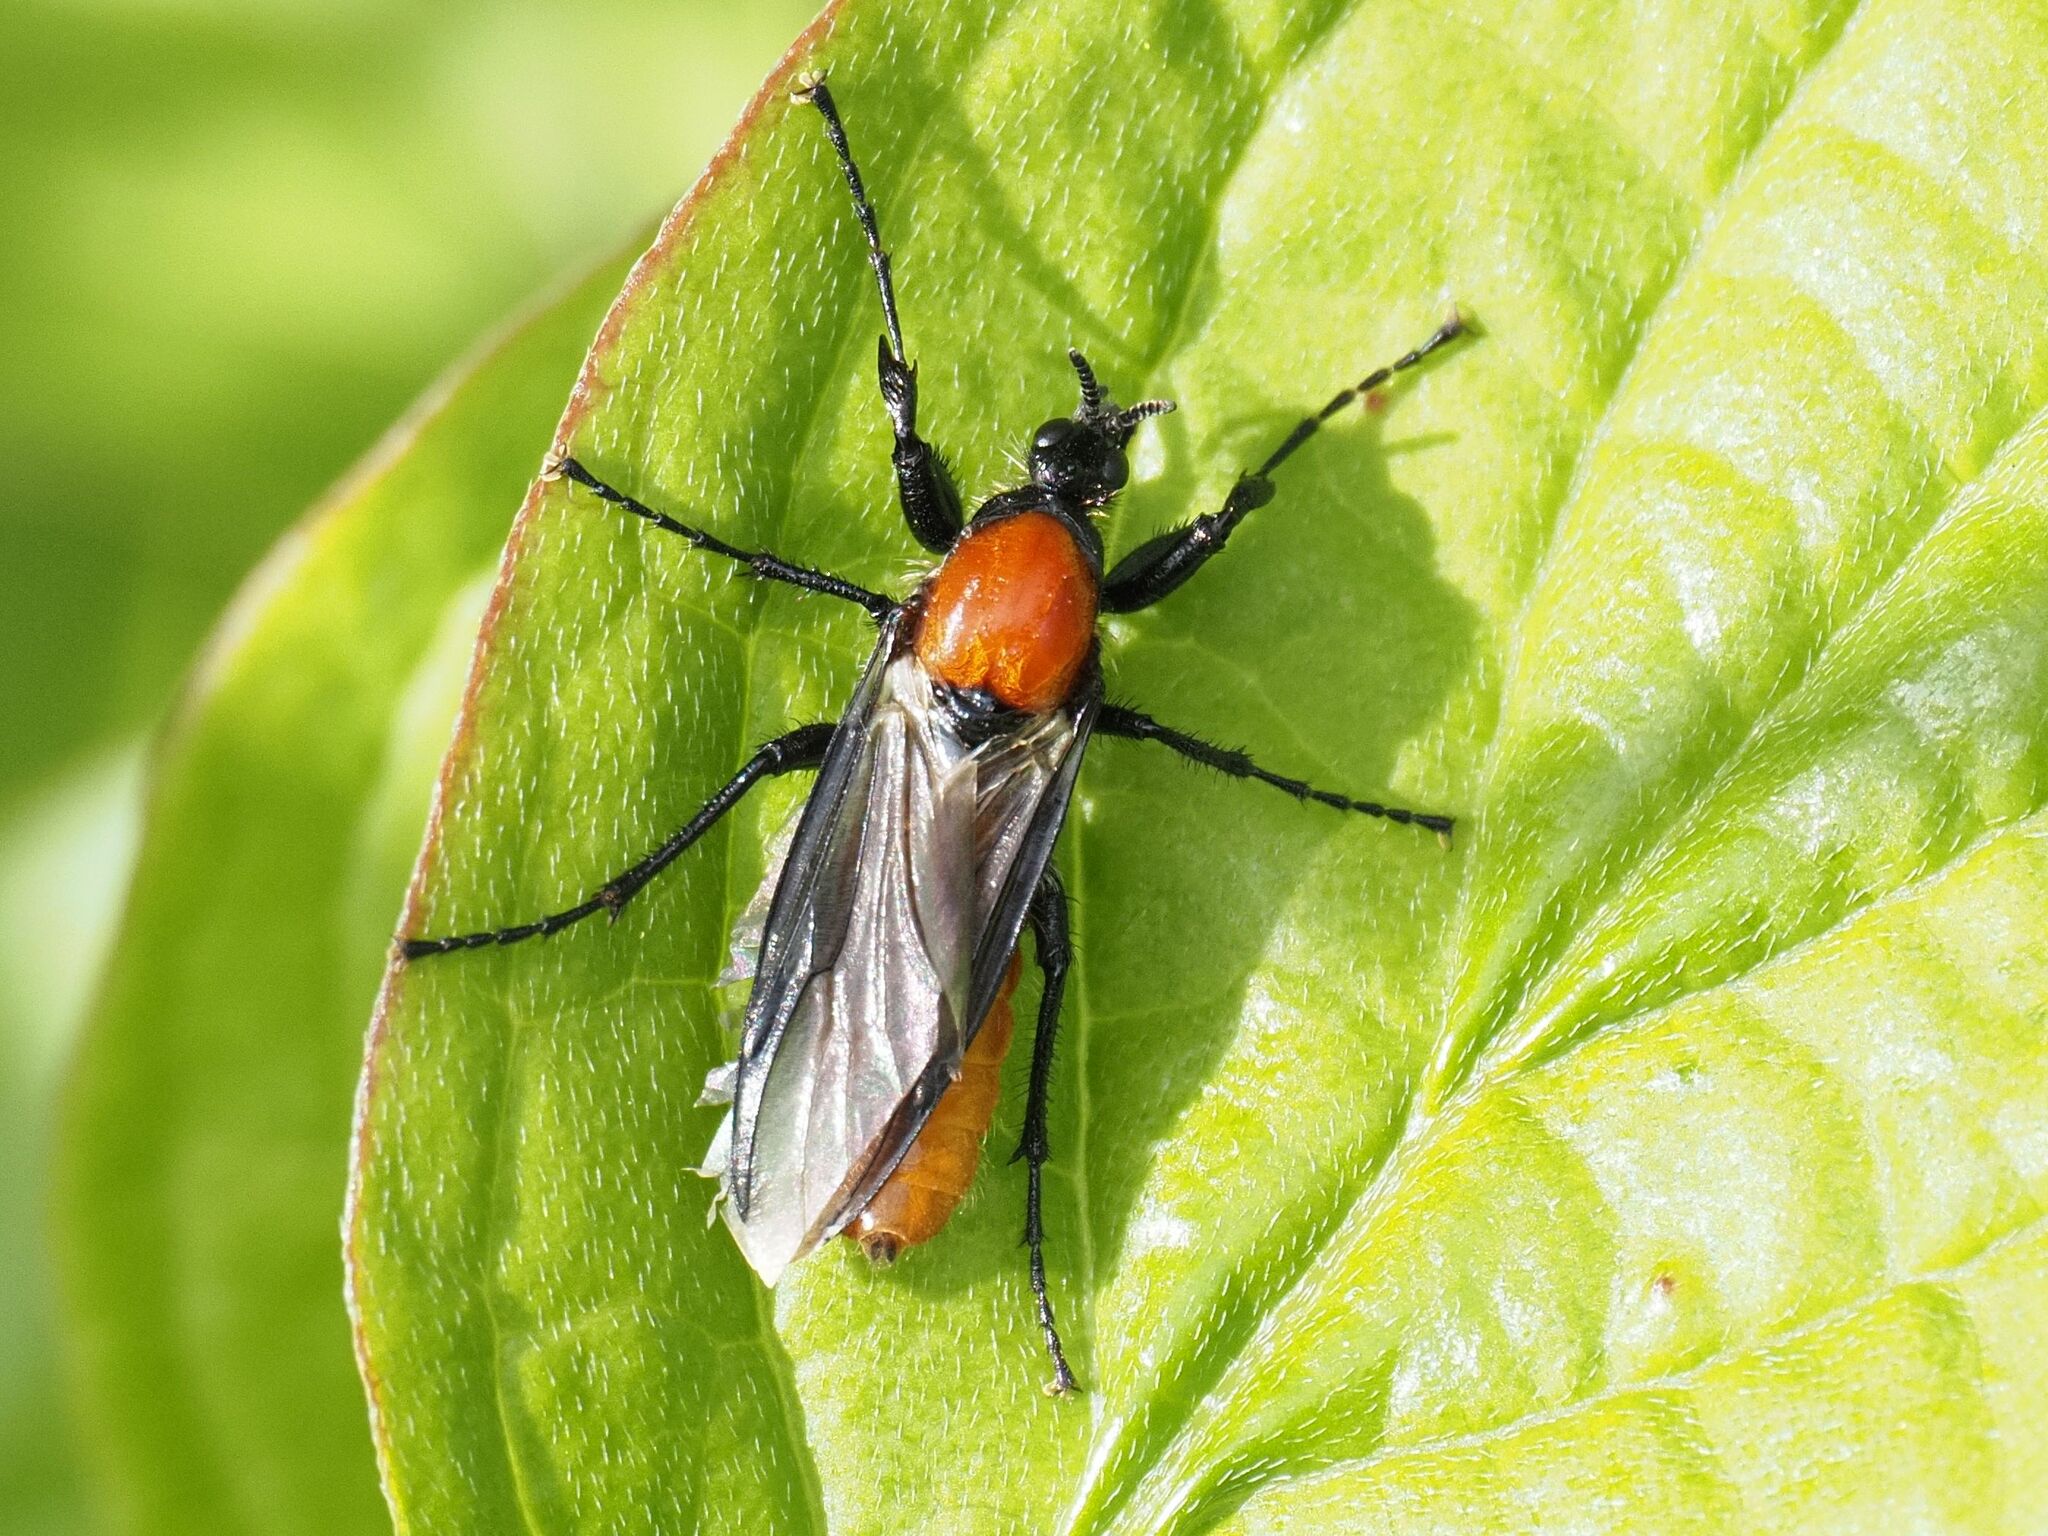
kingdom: Animalia
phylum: Arthropoda
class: Insecta
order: Diptera
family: Bibionidae
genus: Bibio
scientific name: Bibio hortulanus
